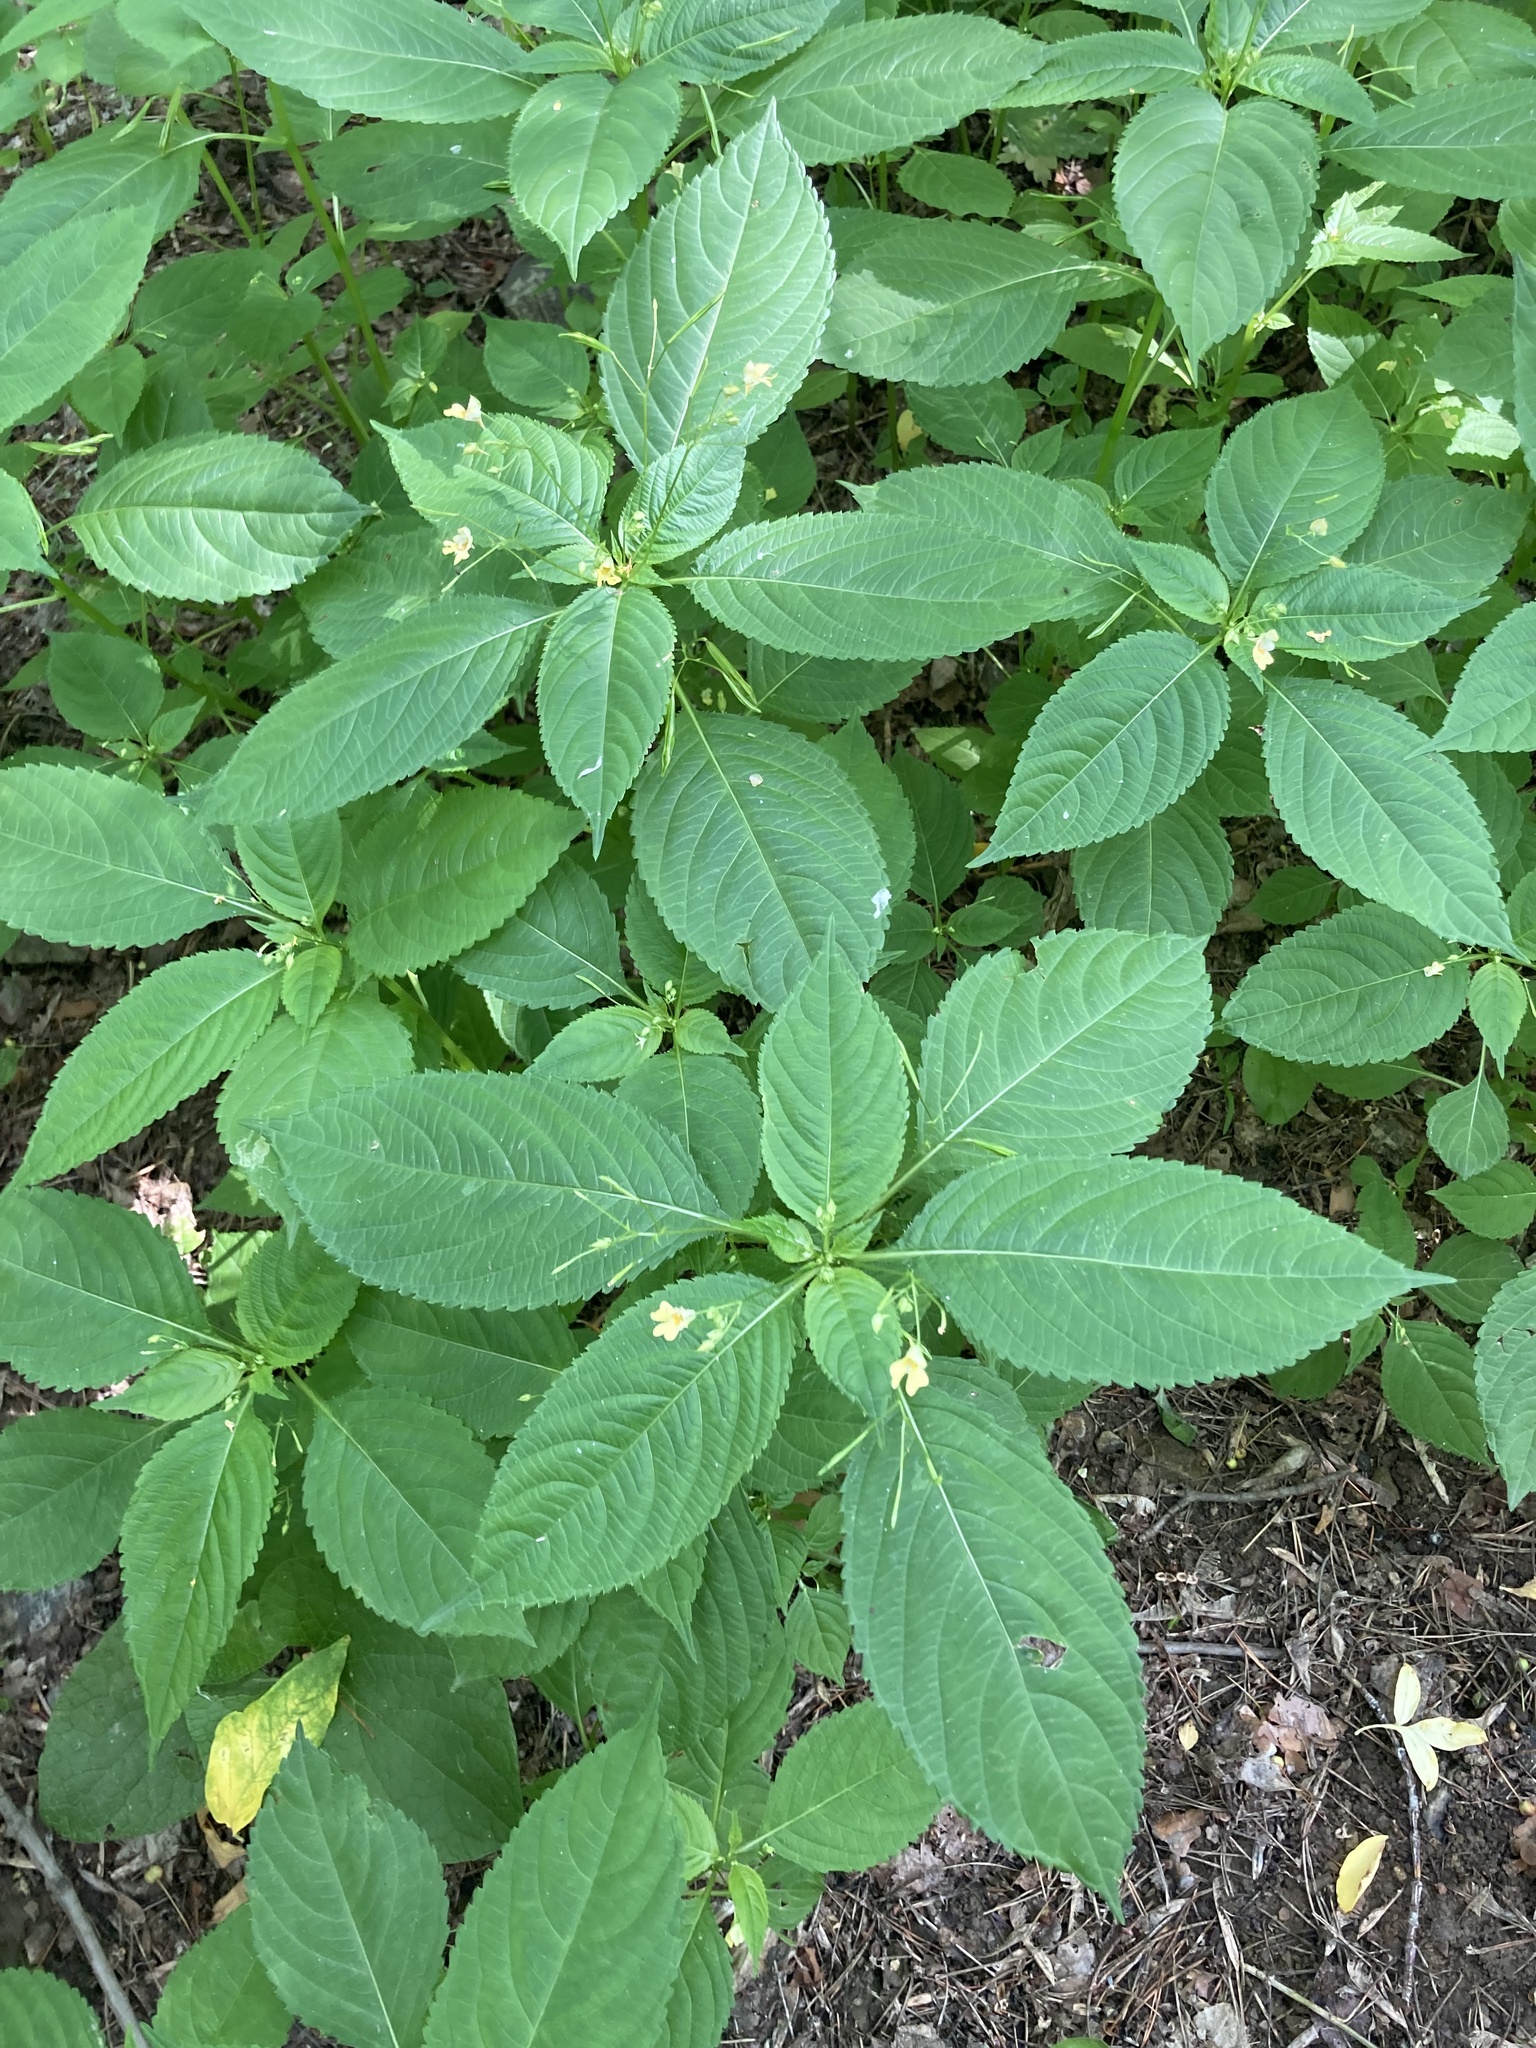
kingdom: Plantae
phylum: Tracheophyta
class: Magnoliopsida
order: Ericales
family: Balsaminaceae
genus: Impatiens
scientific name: Impatiens parviflora
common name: Small balsam
